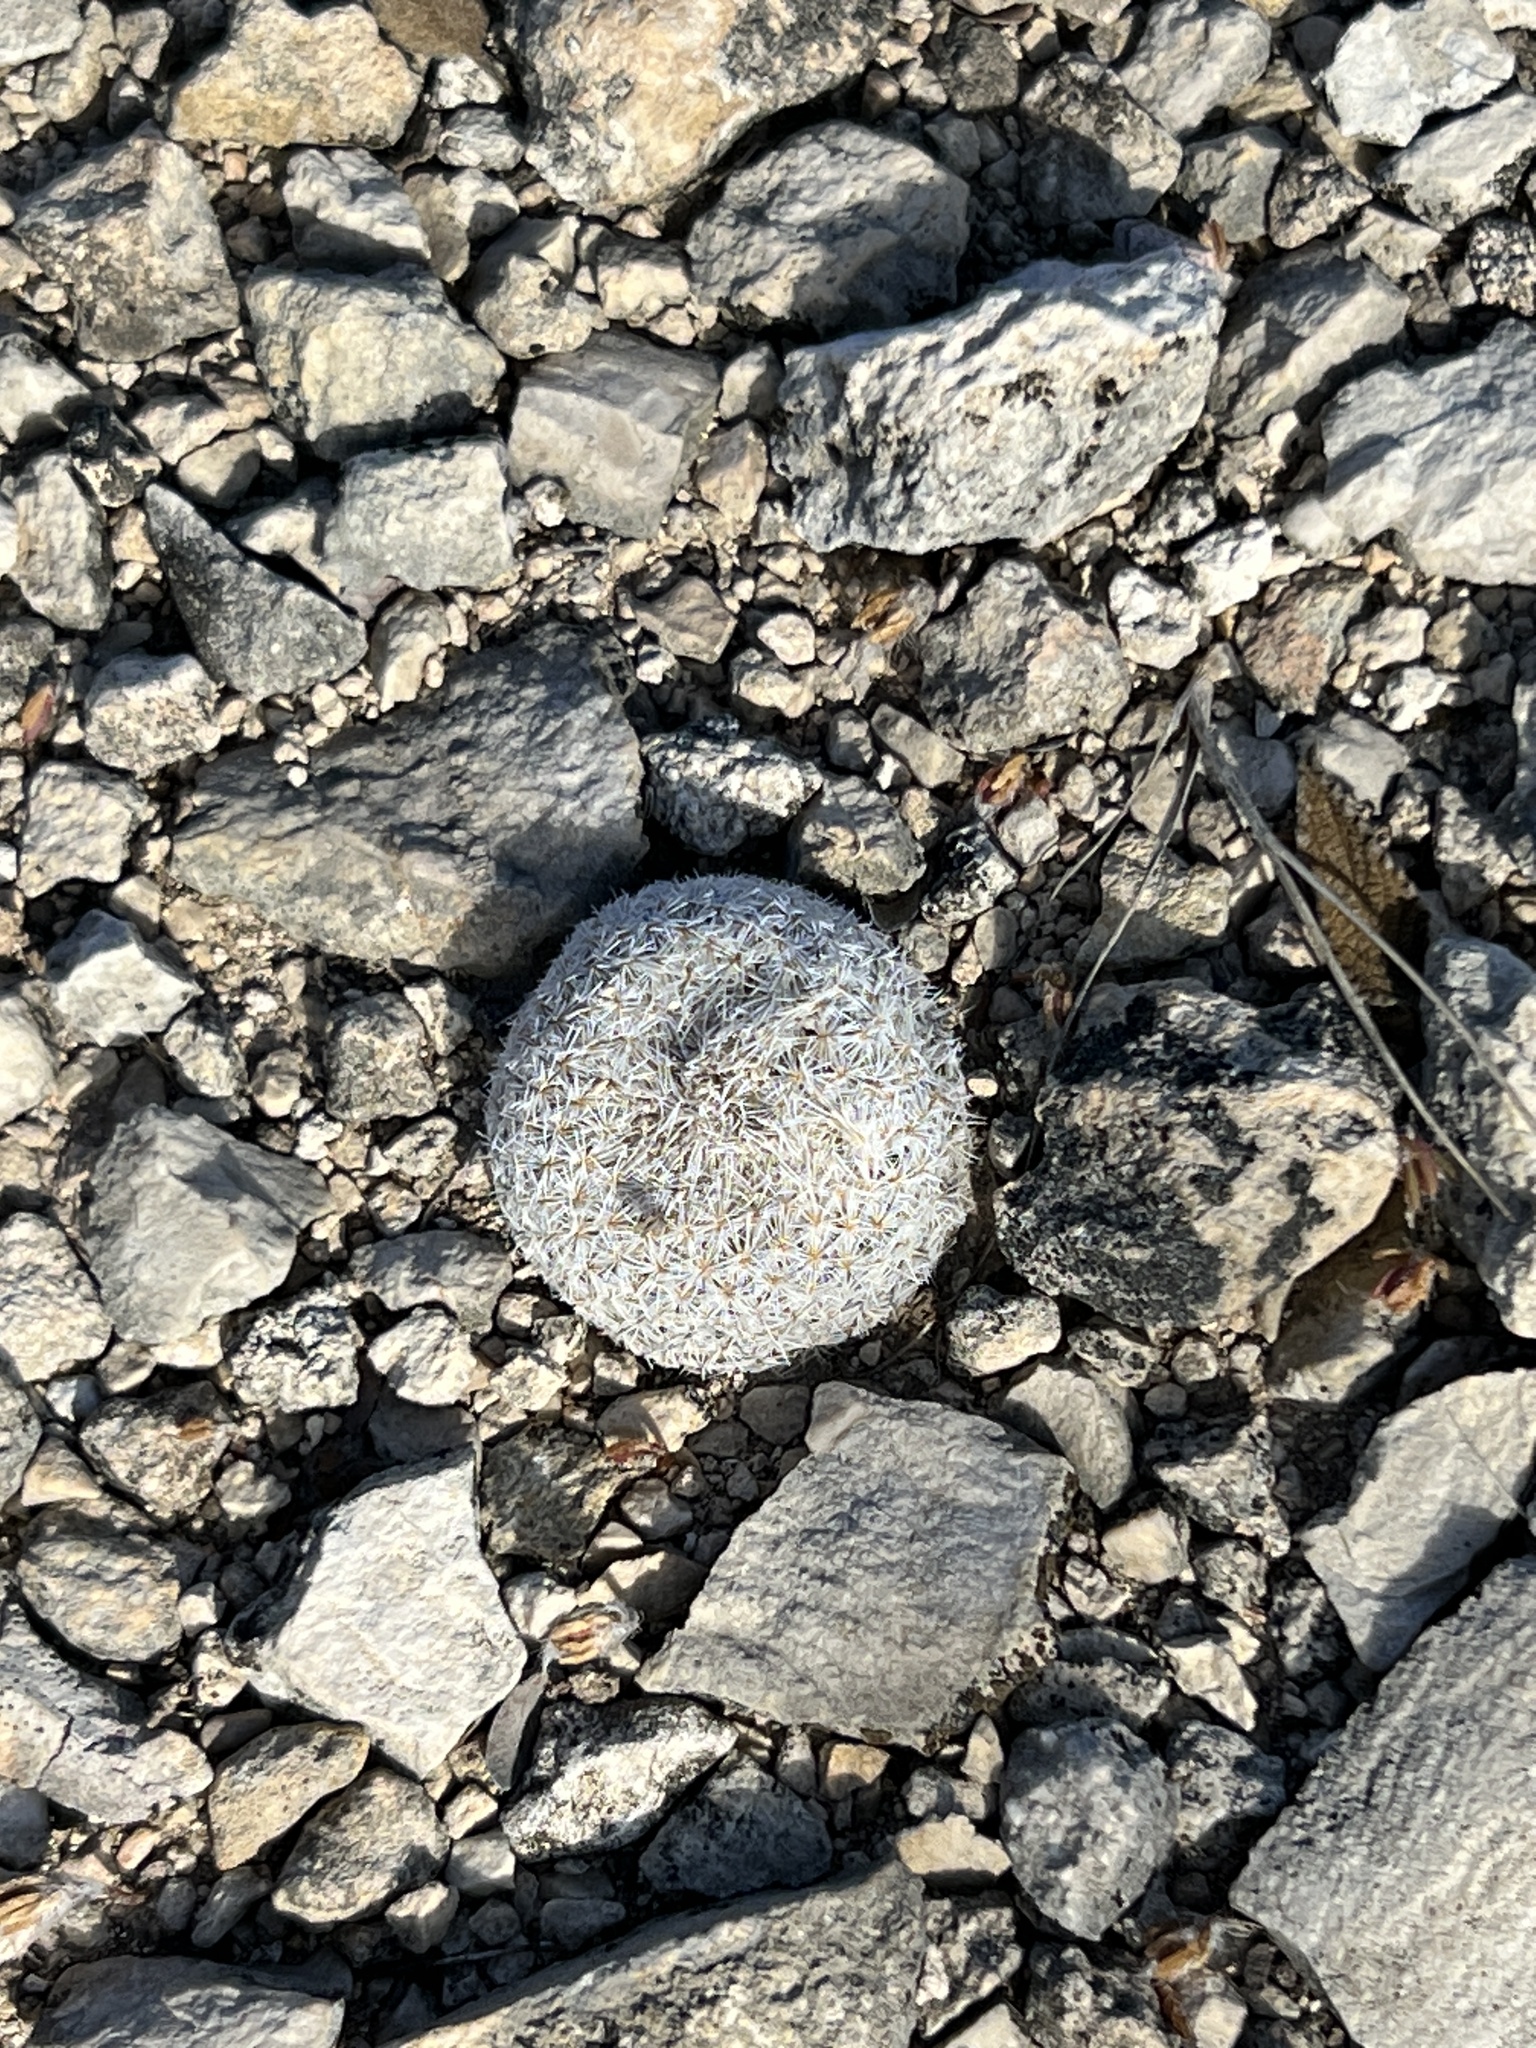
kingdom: Plantae
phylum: Tracheophyta
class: Magnoliopsida
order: Caryophyllales
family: Cactaceae
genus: Epithelantha
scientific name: Epithelantha micromeris
